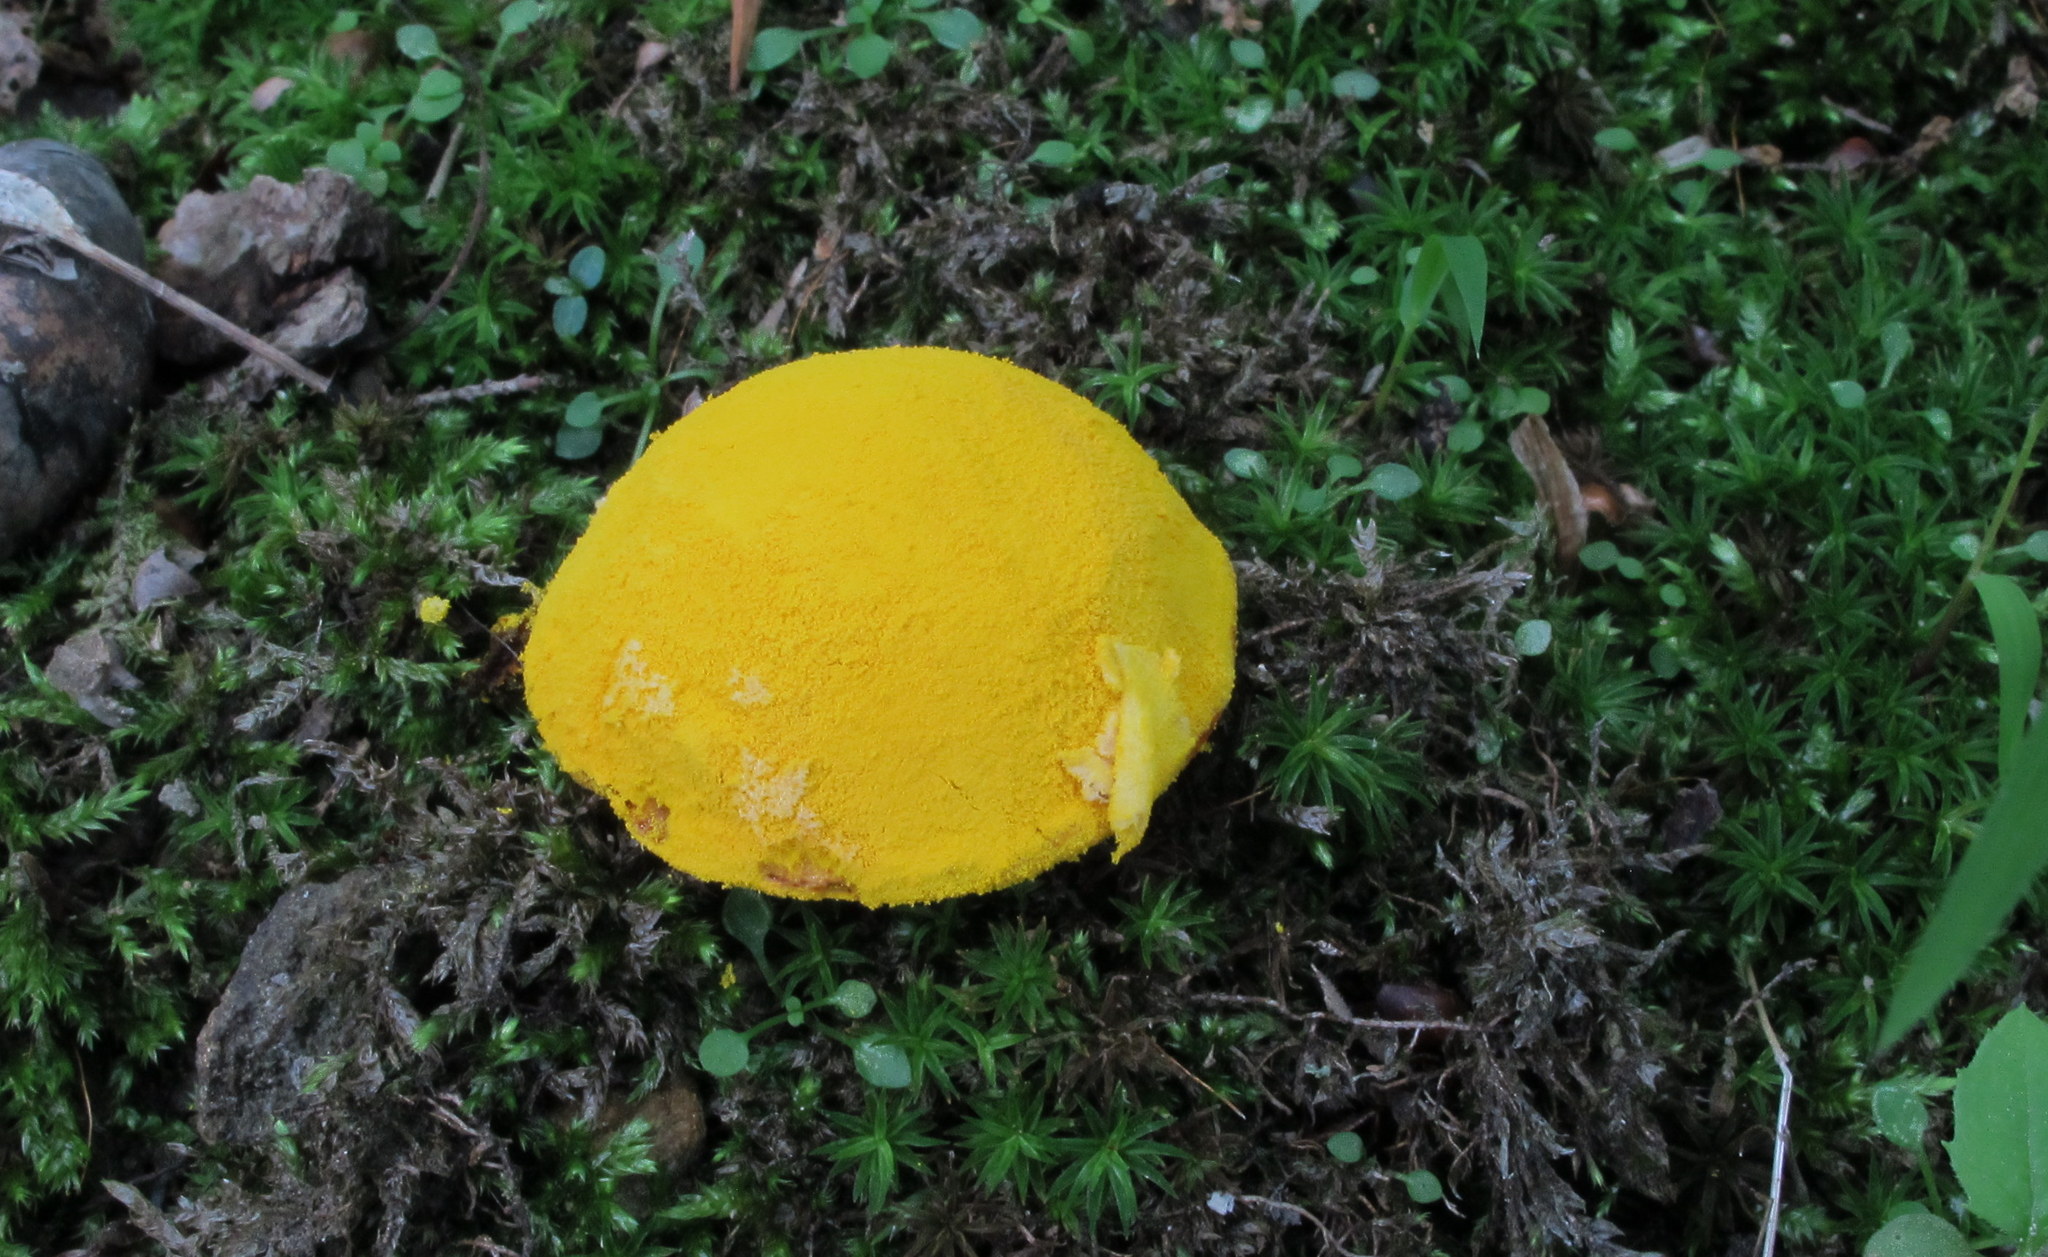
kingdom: Fungi
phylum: Ascomycota
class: Sordariomycetes
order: Hypocreales
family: Hypocreaceae
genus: Hypomyces
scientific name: Hypomyces chrysospermus
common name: Bolete mould
